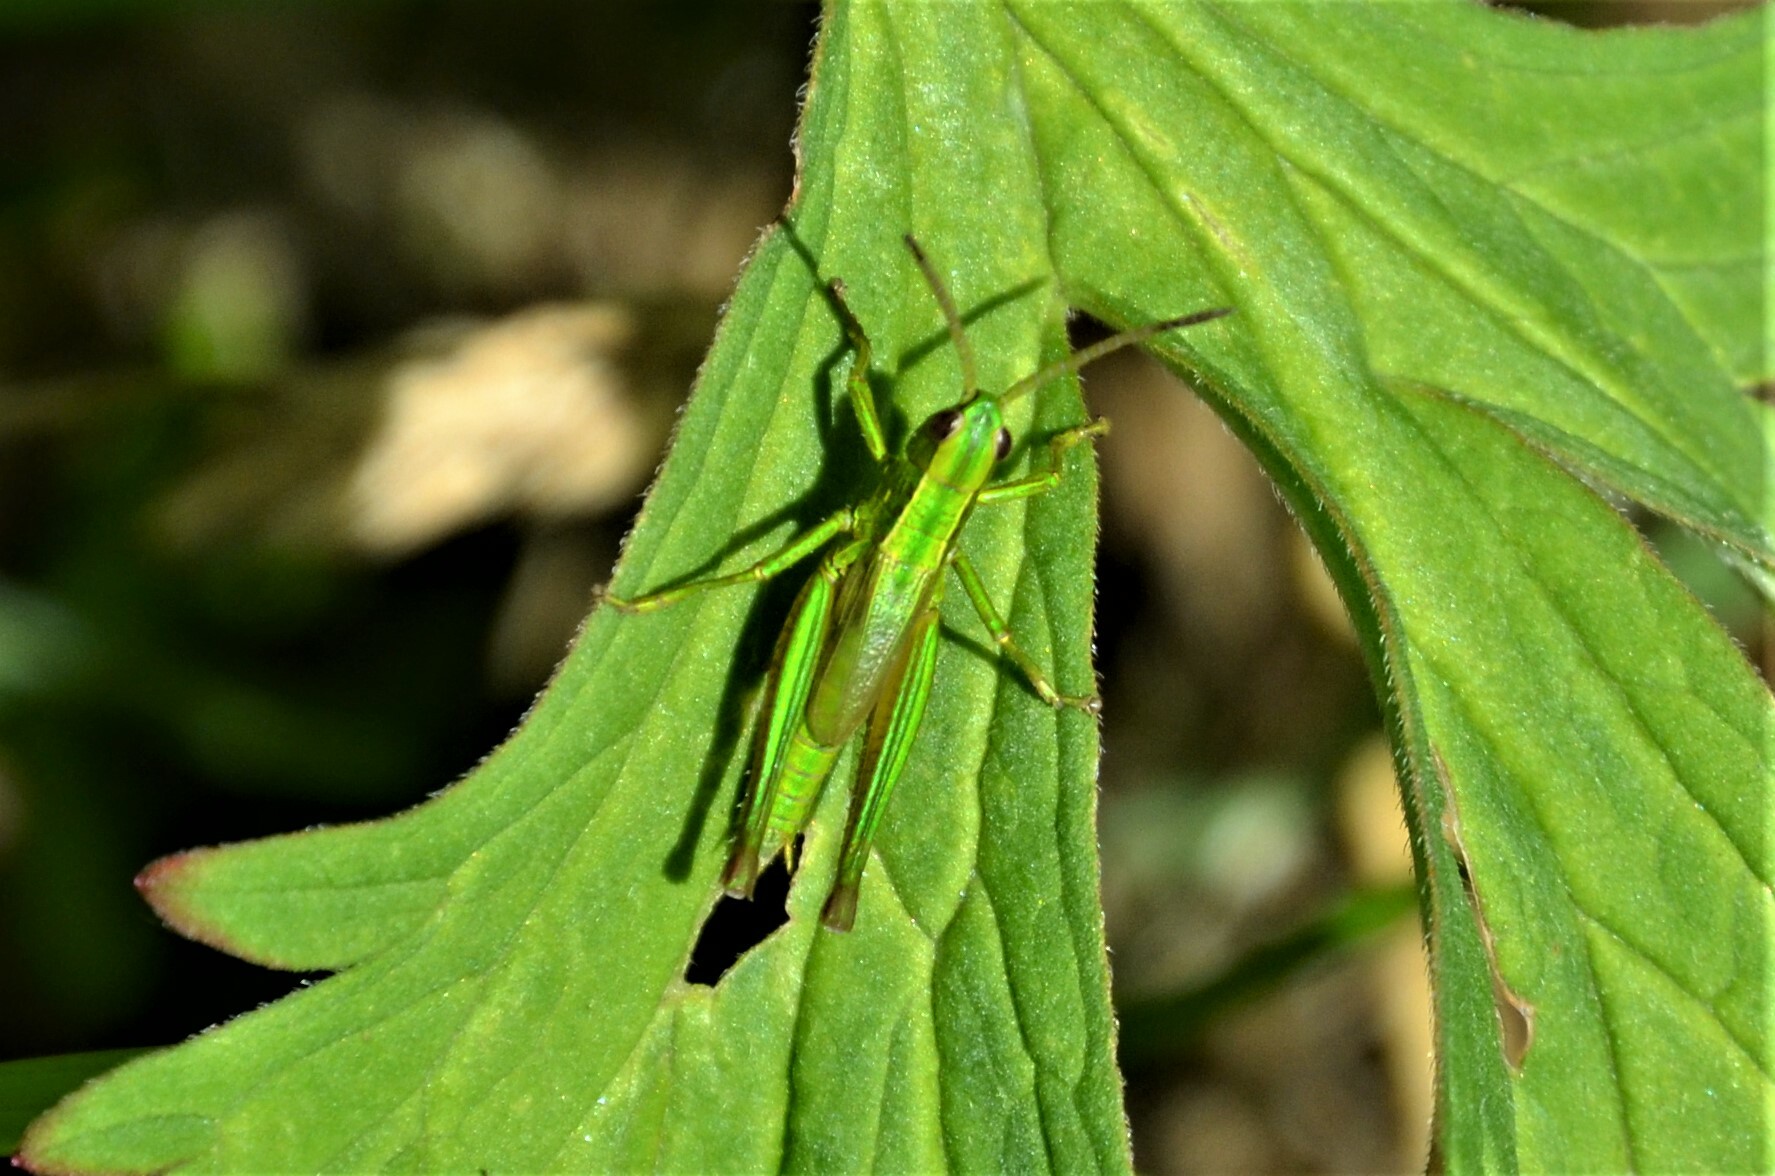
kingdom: Animalia
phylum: Arthropoda
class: Insecta
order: Orthoptera
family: Acrididae
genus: Euthystira
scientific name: Euthystira brachyptera
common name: Small gold grasshopper
